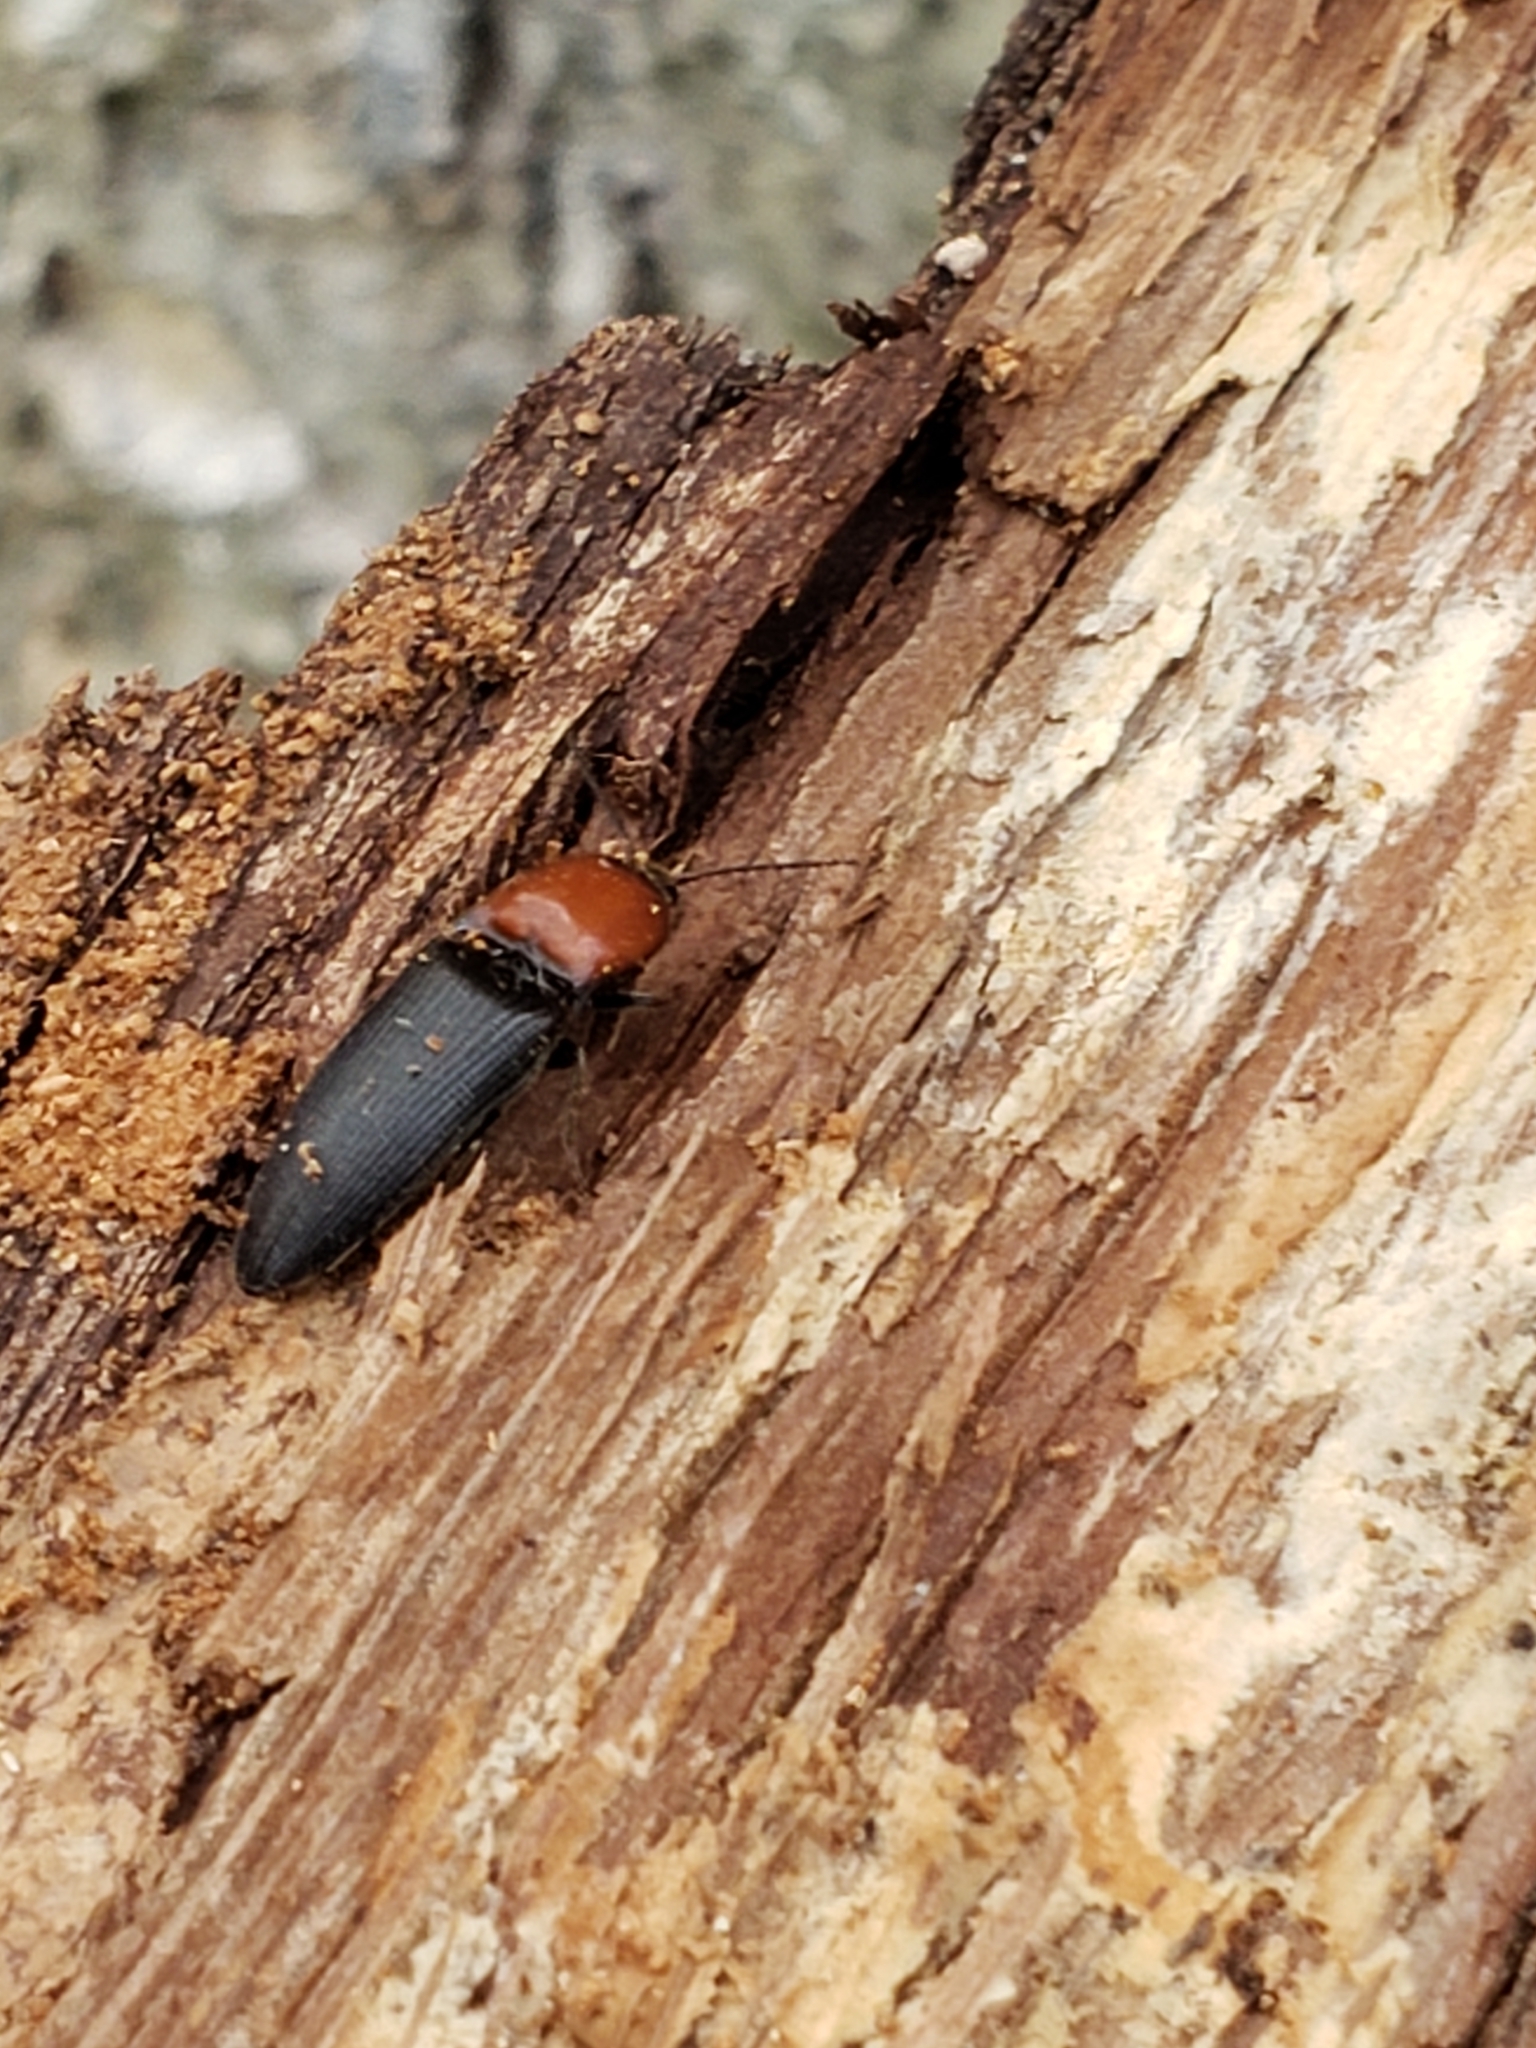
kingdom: Animalia
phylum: Arthropoda
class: Insecta
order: Coleoptera
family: Elateridae
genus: Ampedus
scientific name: Ampedus rubricollis
